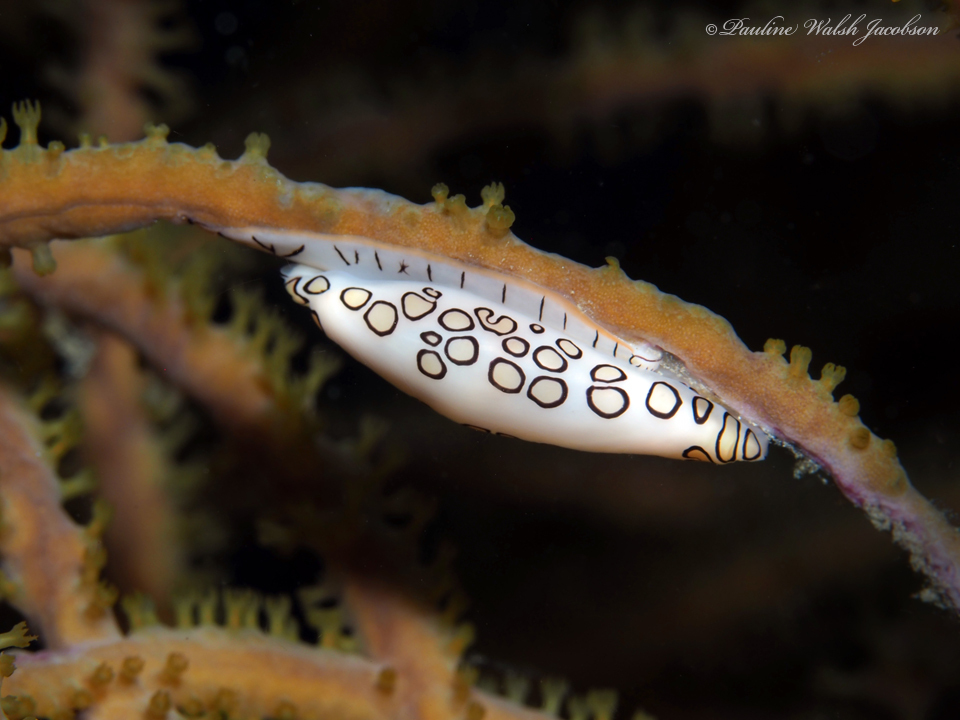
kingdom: Animalia
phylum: Mollusca
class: Gastropoda
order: Littorinimorpha
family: Ovulidae
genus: Cyphoma
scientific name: Cyphoma gibbosum
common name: Flamingo tongue
